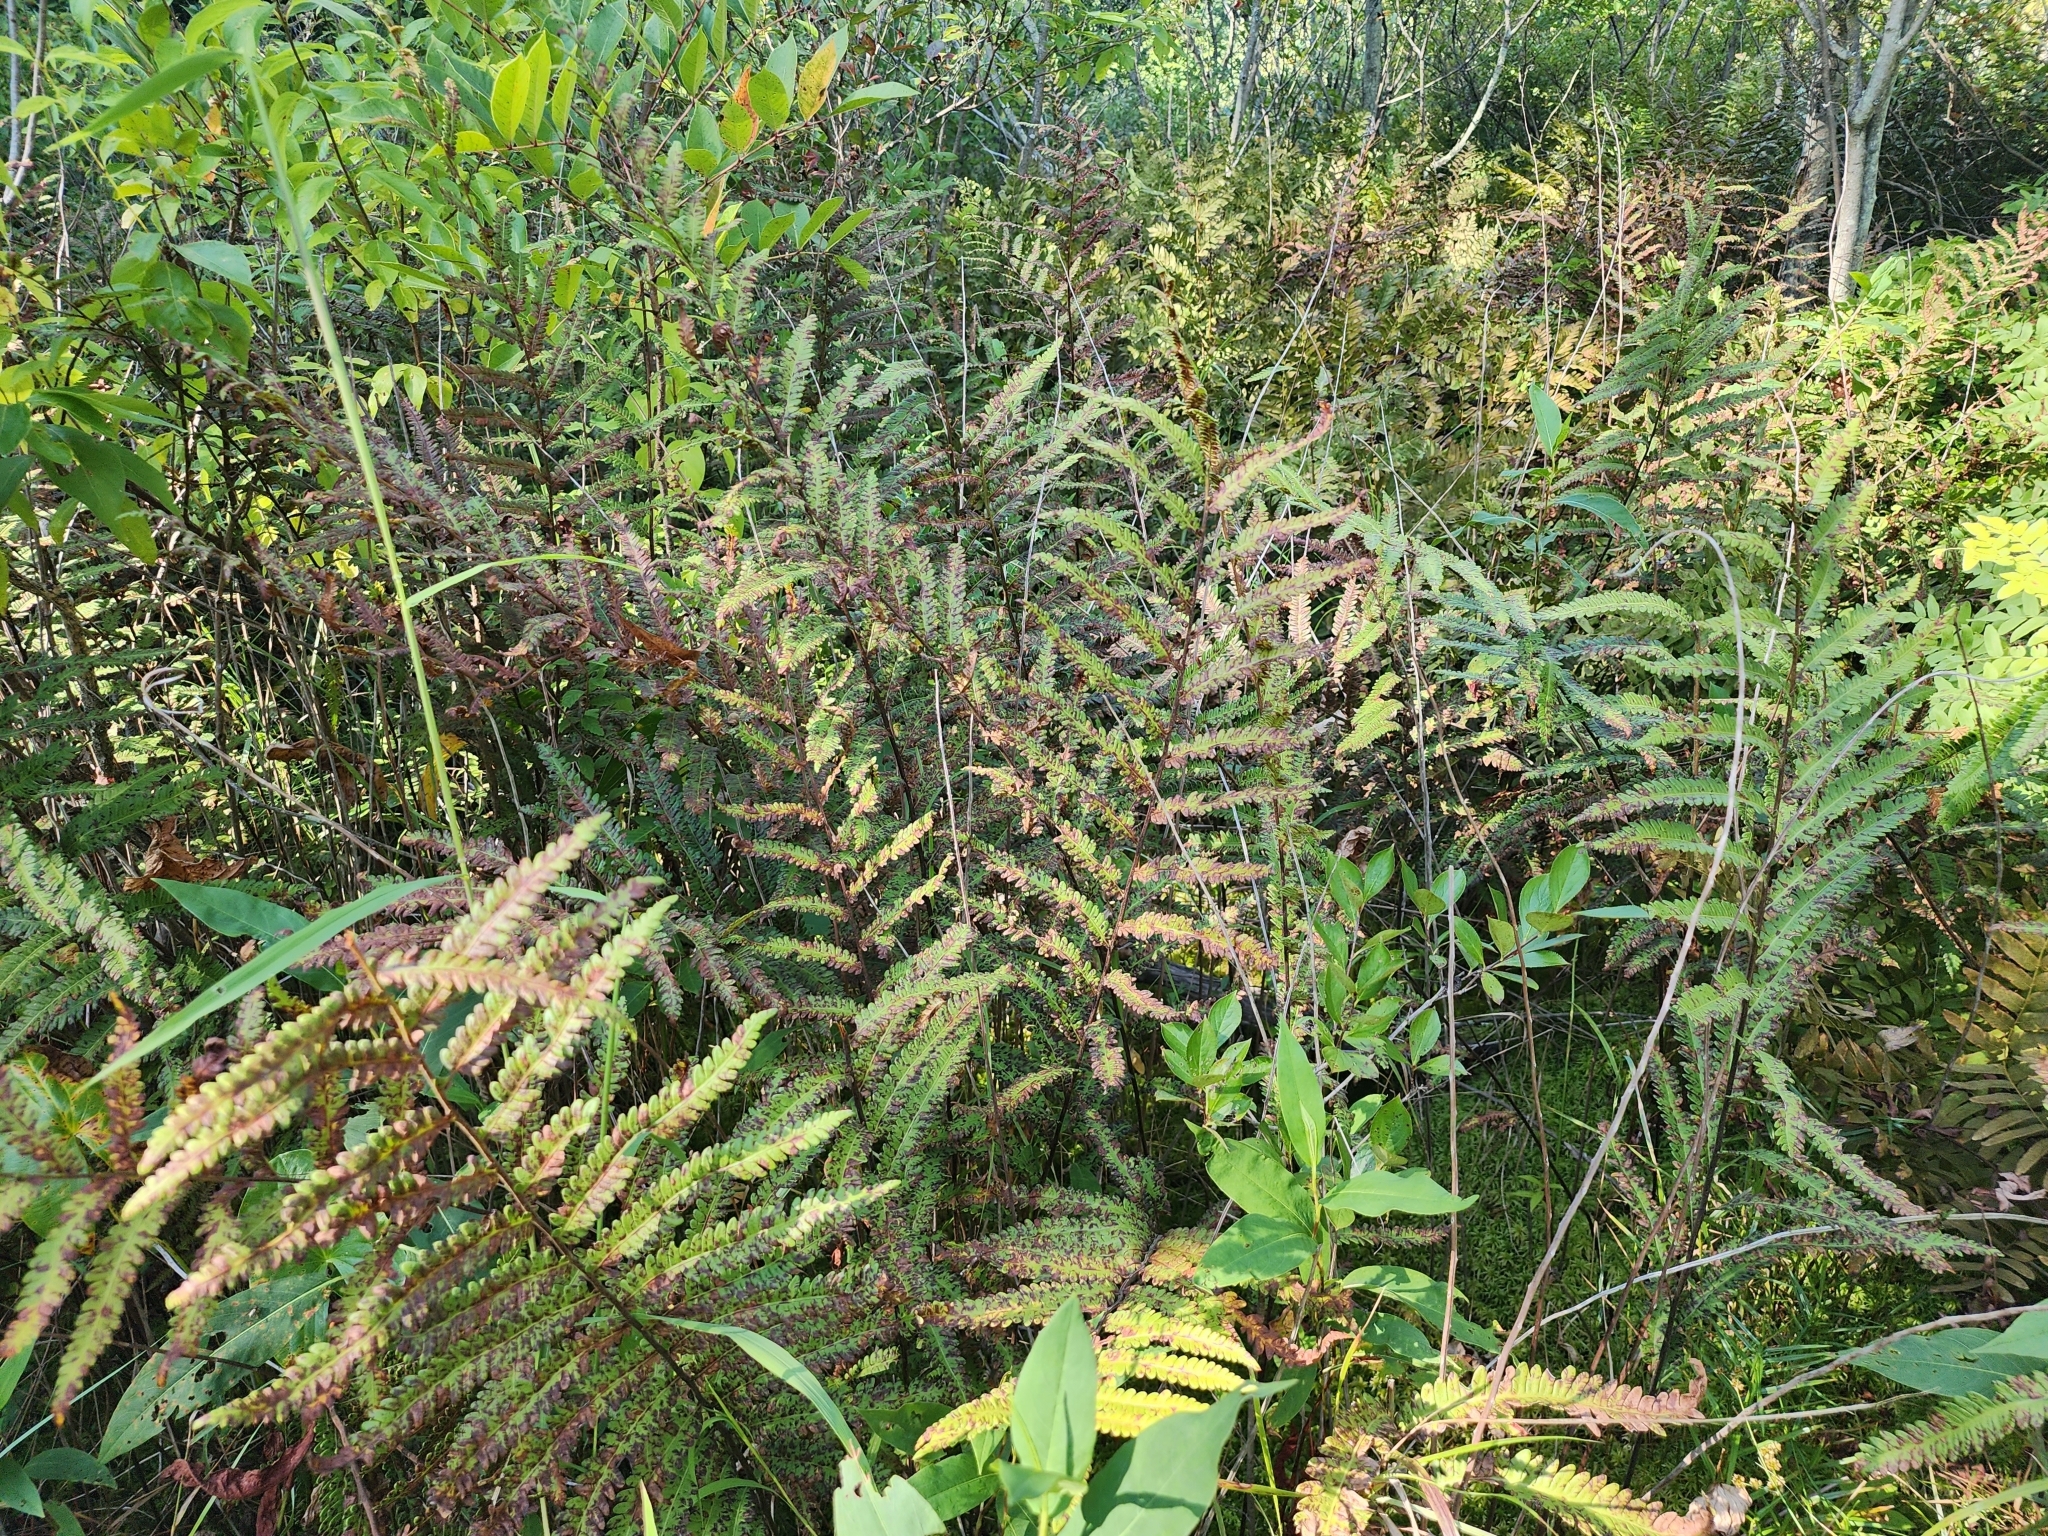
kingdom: Plantae
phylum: Tracheophyta
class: Polypodiopsida
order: Polypodiales
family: Blechnaceae
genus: Anchistea
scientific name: Anchistea virginica
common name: Virginia chain fern
